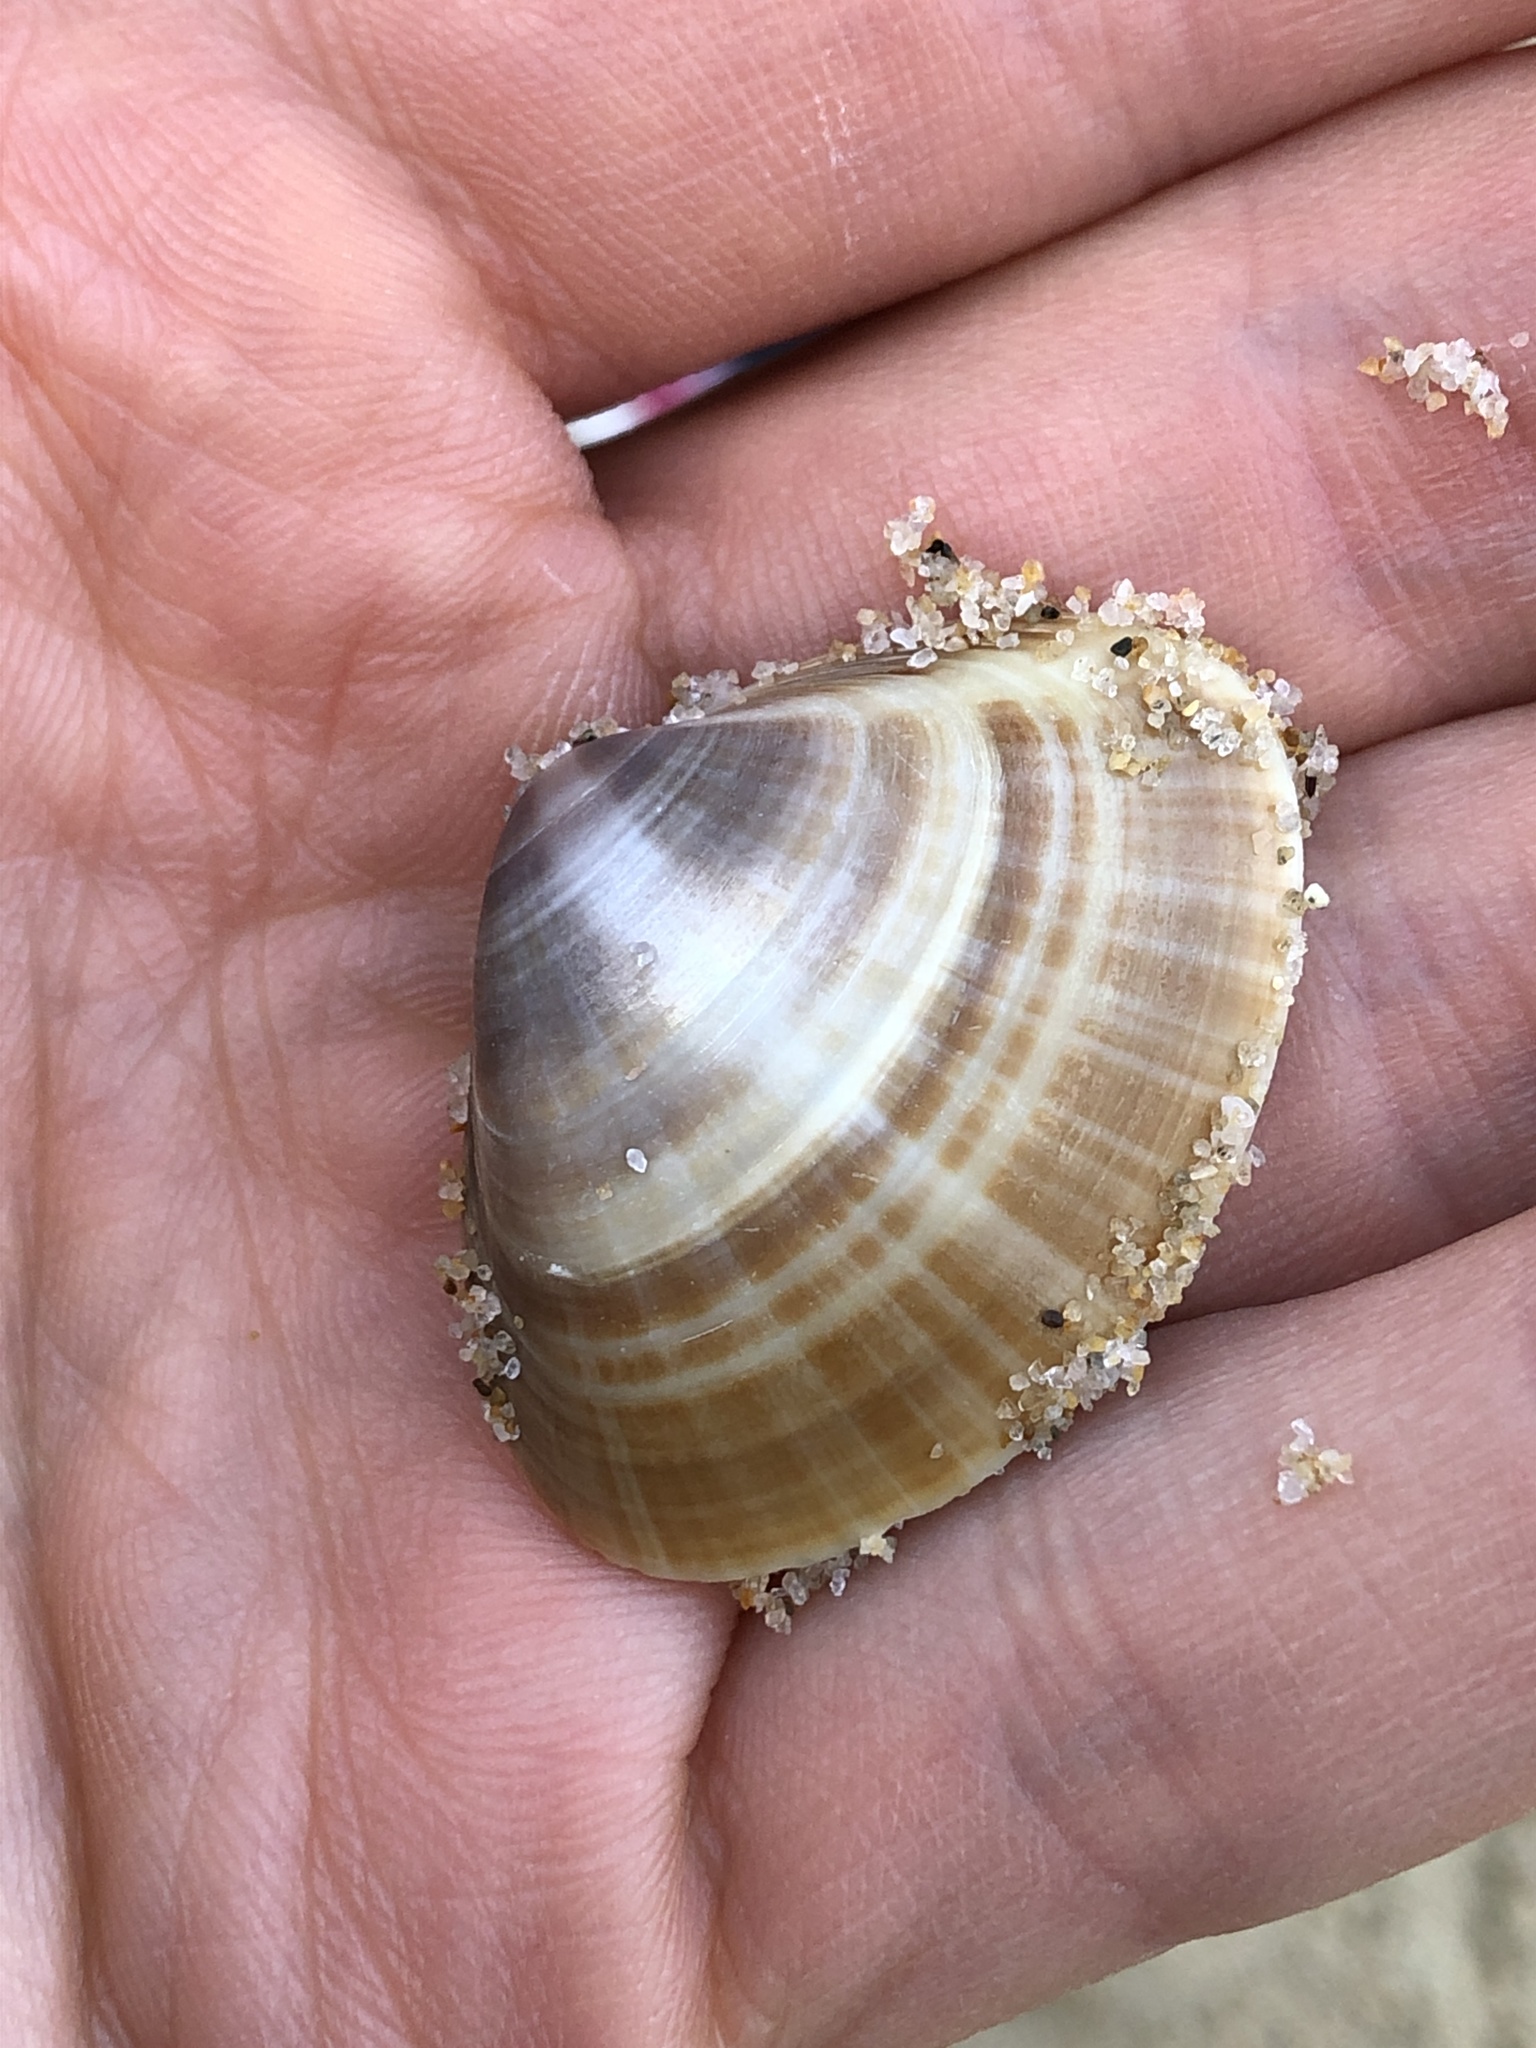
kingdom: Animalia
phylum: Mollusca
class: Bivalvia
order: Venerida
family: Mactridae
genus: Mactra
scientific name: Mactra chinensis
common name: Chinese surf clam
